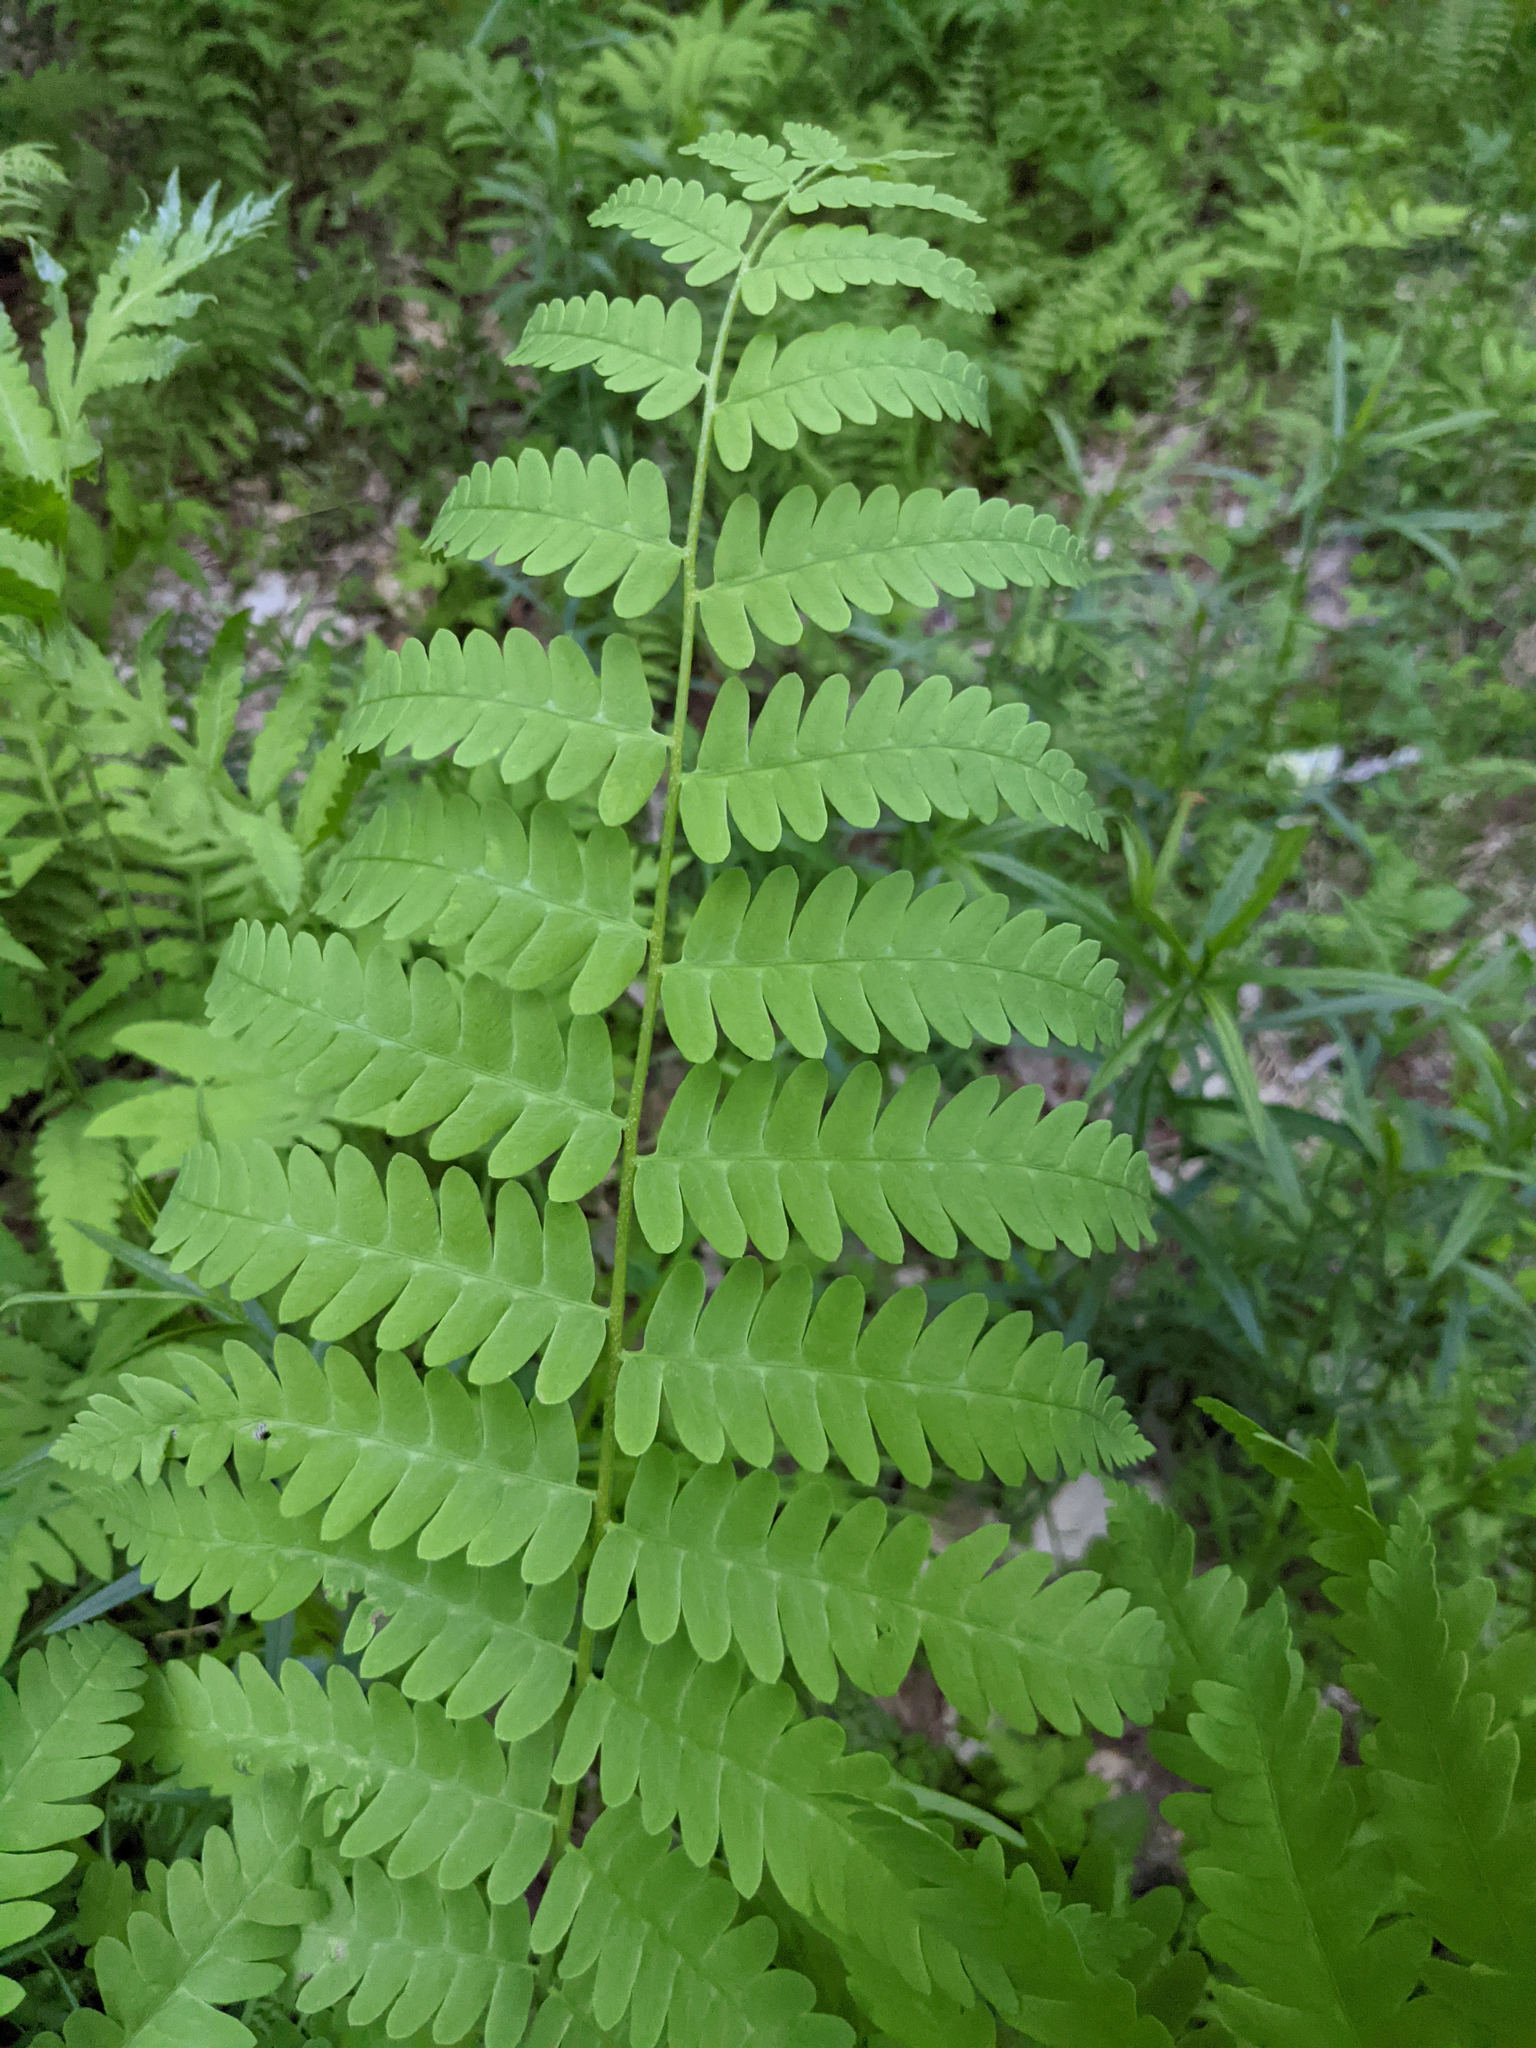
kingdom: Plantae
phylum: Tracheophyta
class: Polypodiopsida
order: Osmundales
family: Osmundaceae
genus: Claytosmunda
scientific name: Claytosmunda claytoniana
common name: Clayton's fern
